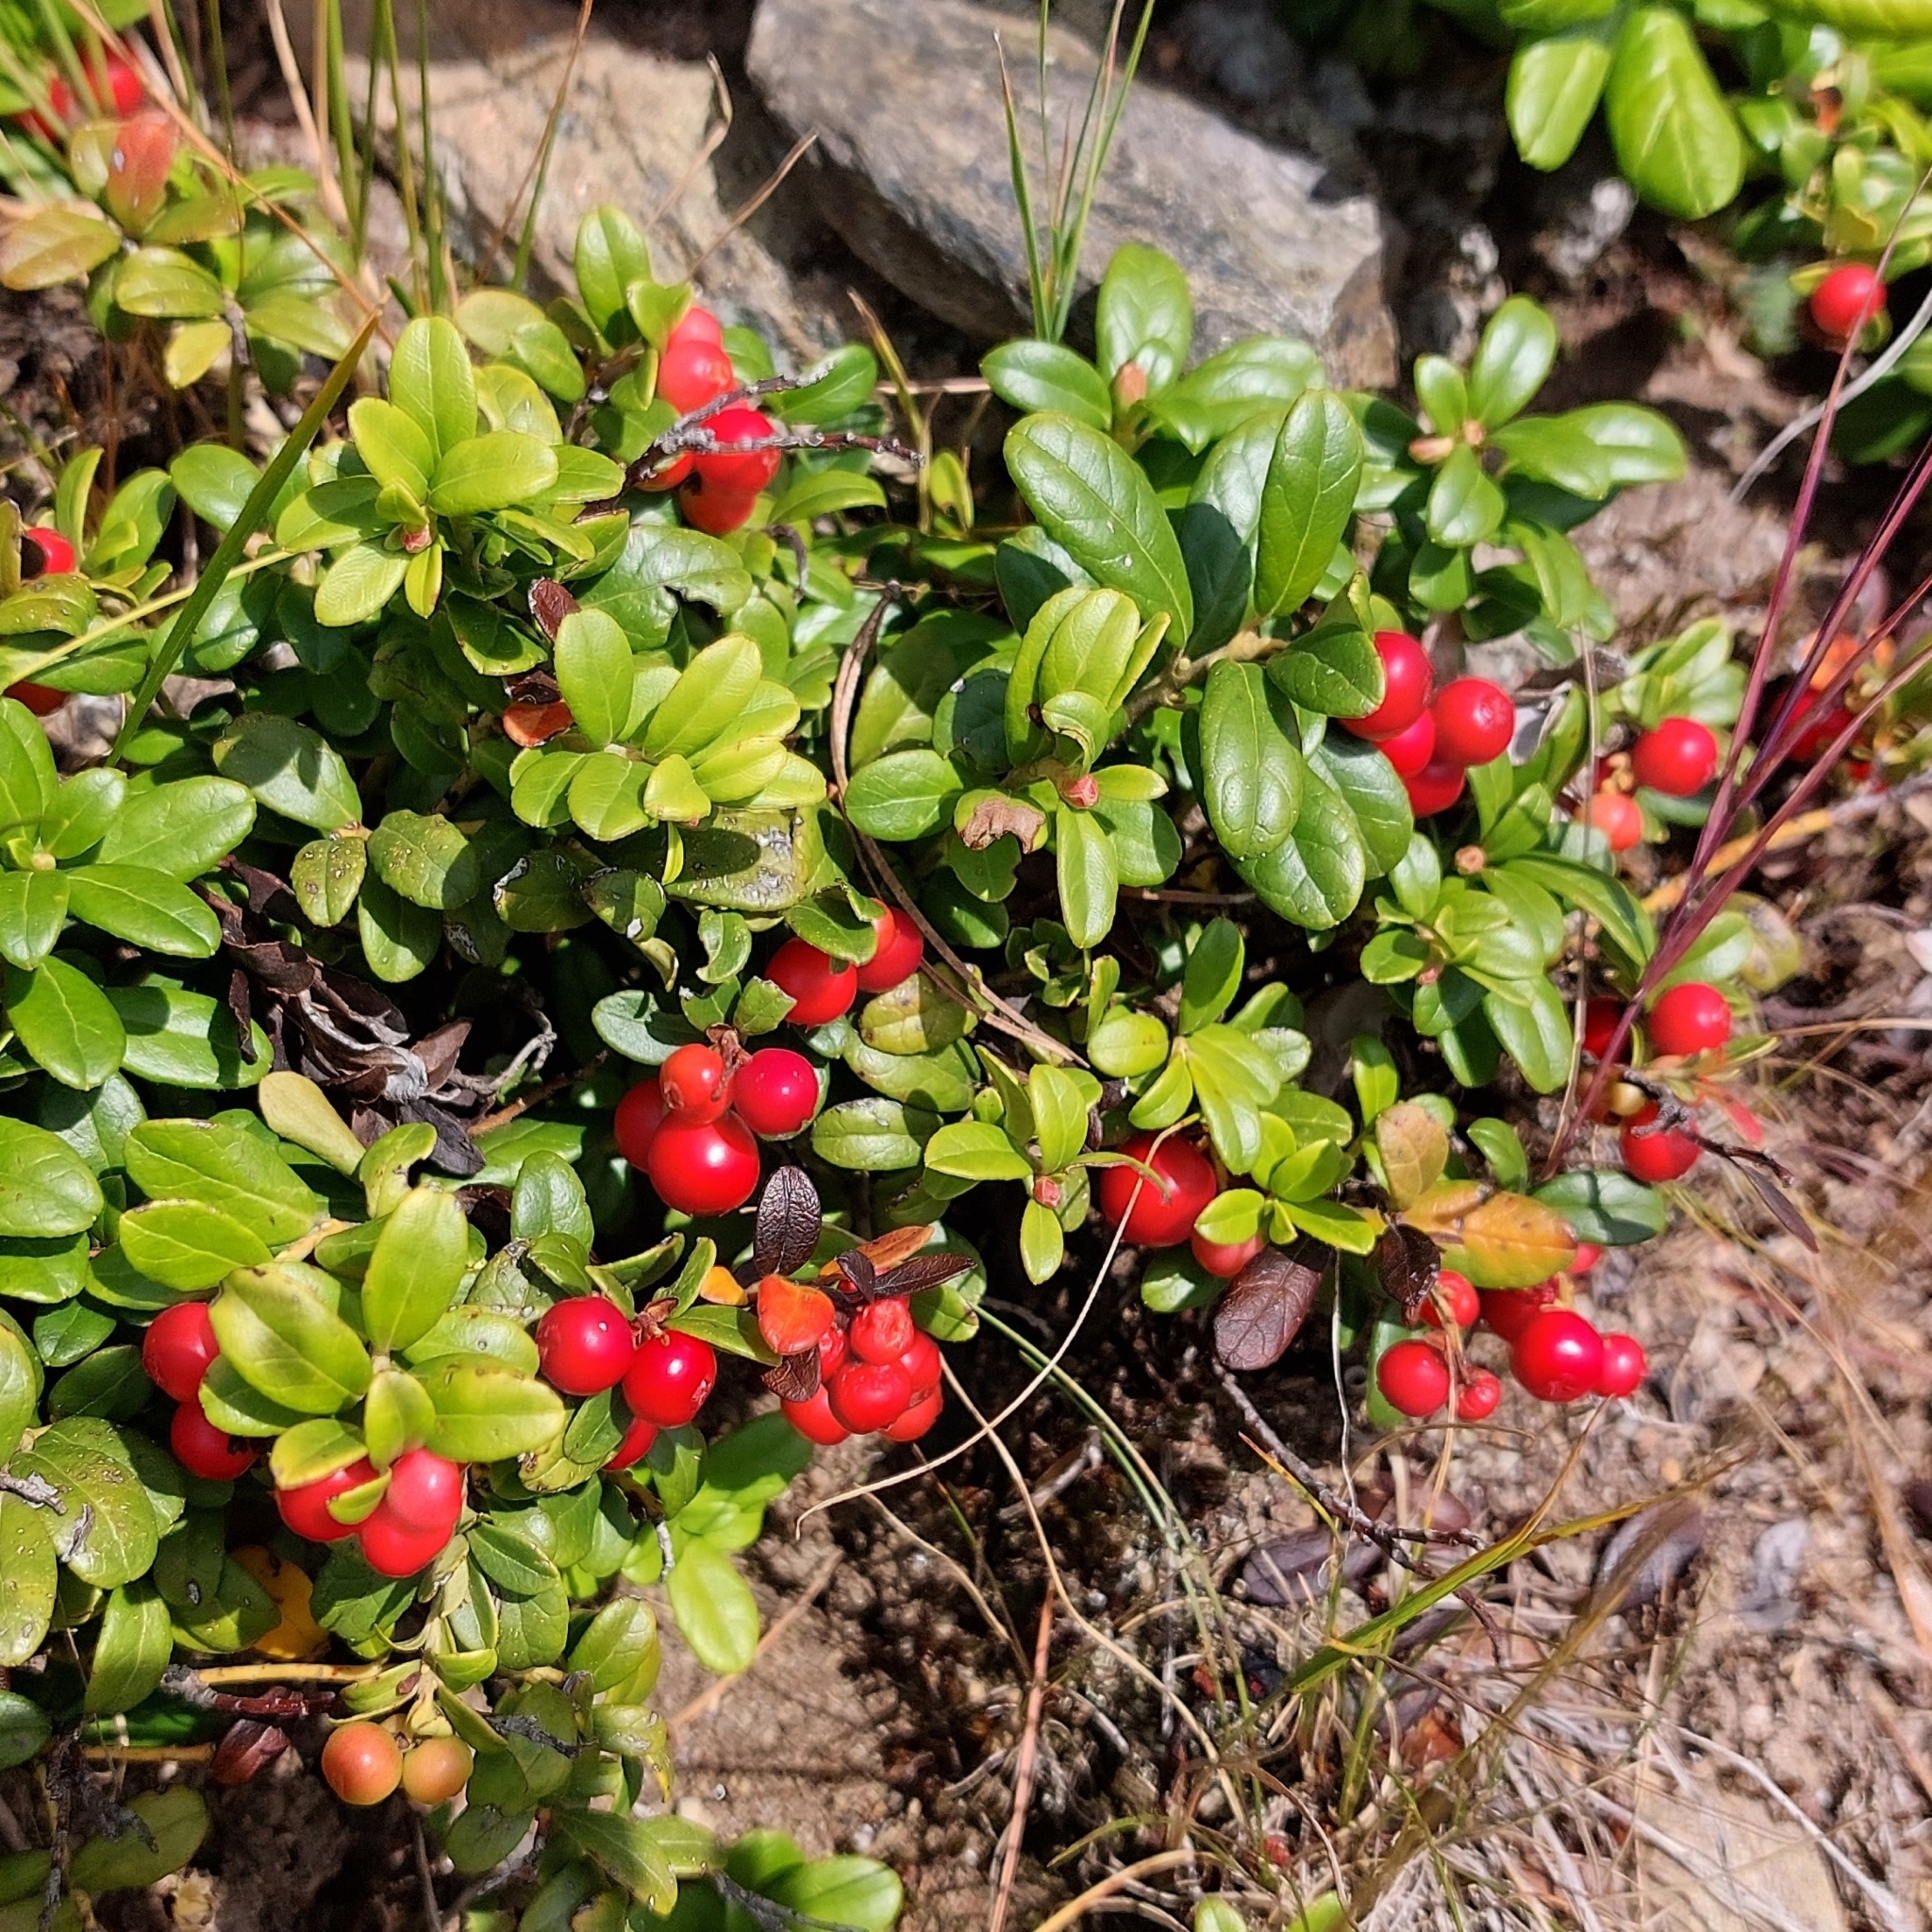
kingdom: Plantae
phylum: Tracheophyta
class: Magnoliopsida
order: Ericales
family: Ericaceae
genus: Vaccinium
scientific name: Vaccinium vitis-idaea
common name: Cowberry
